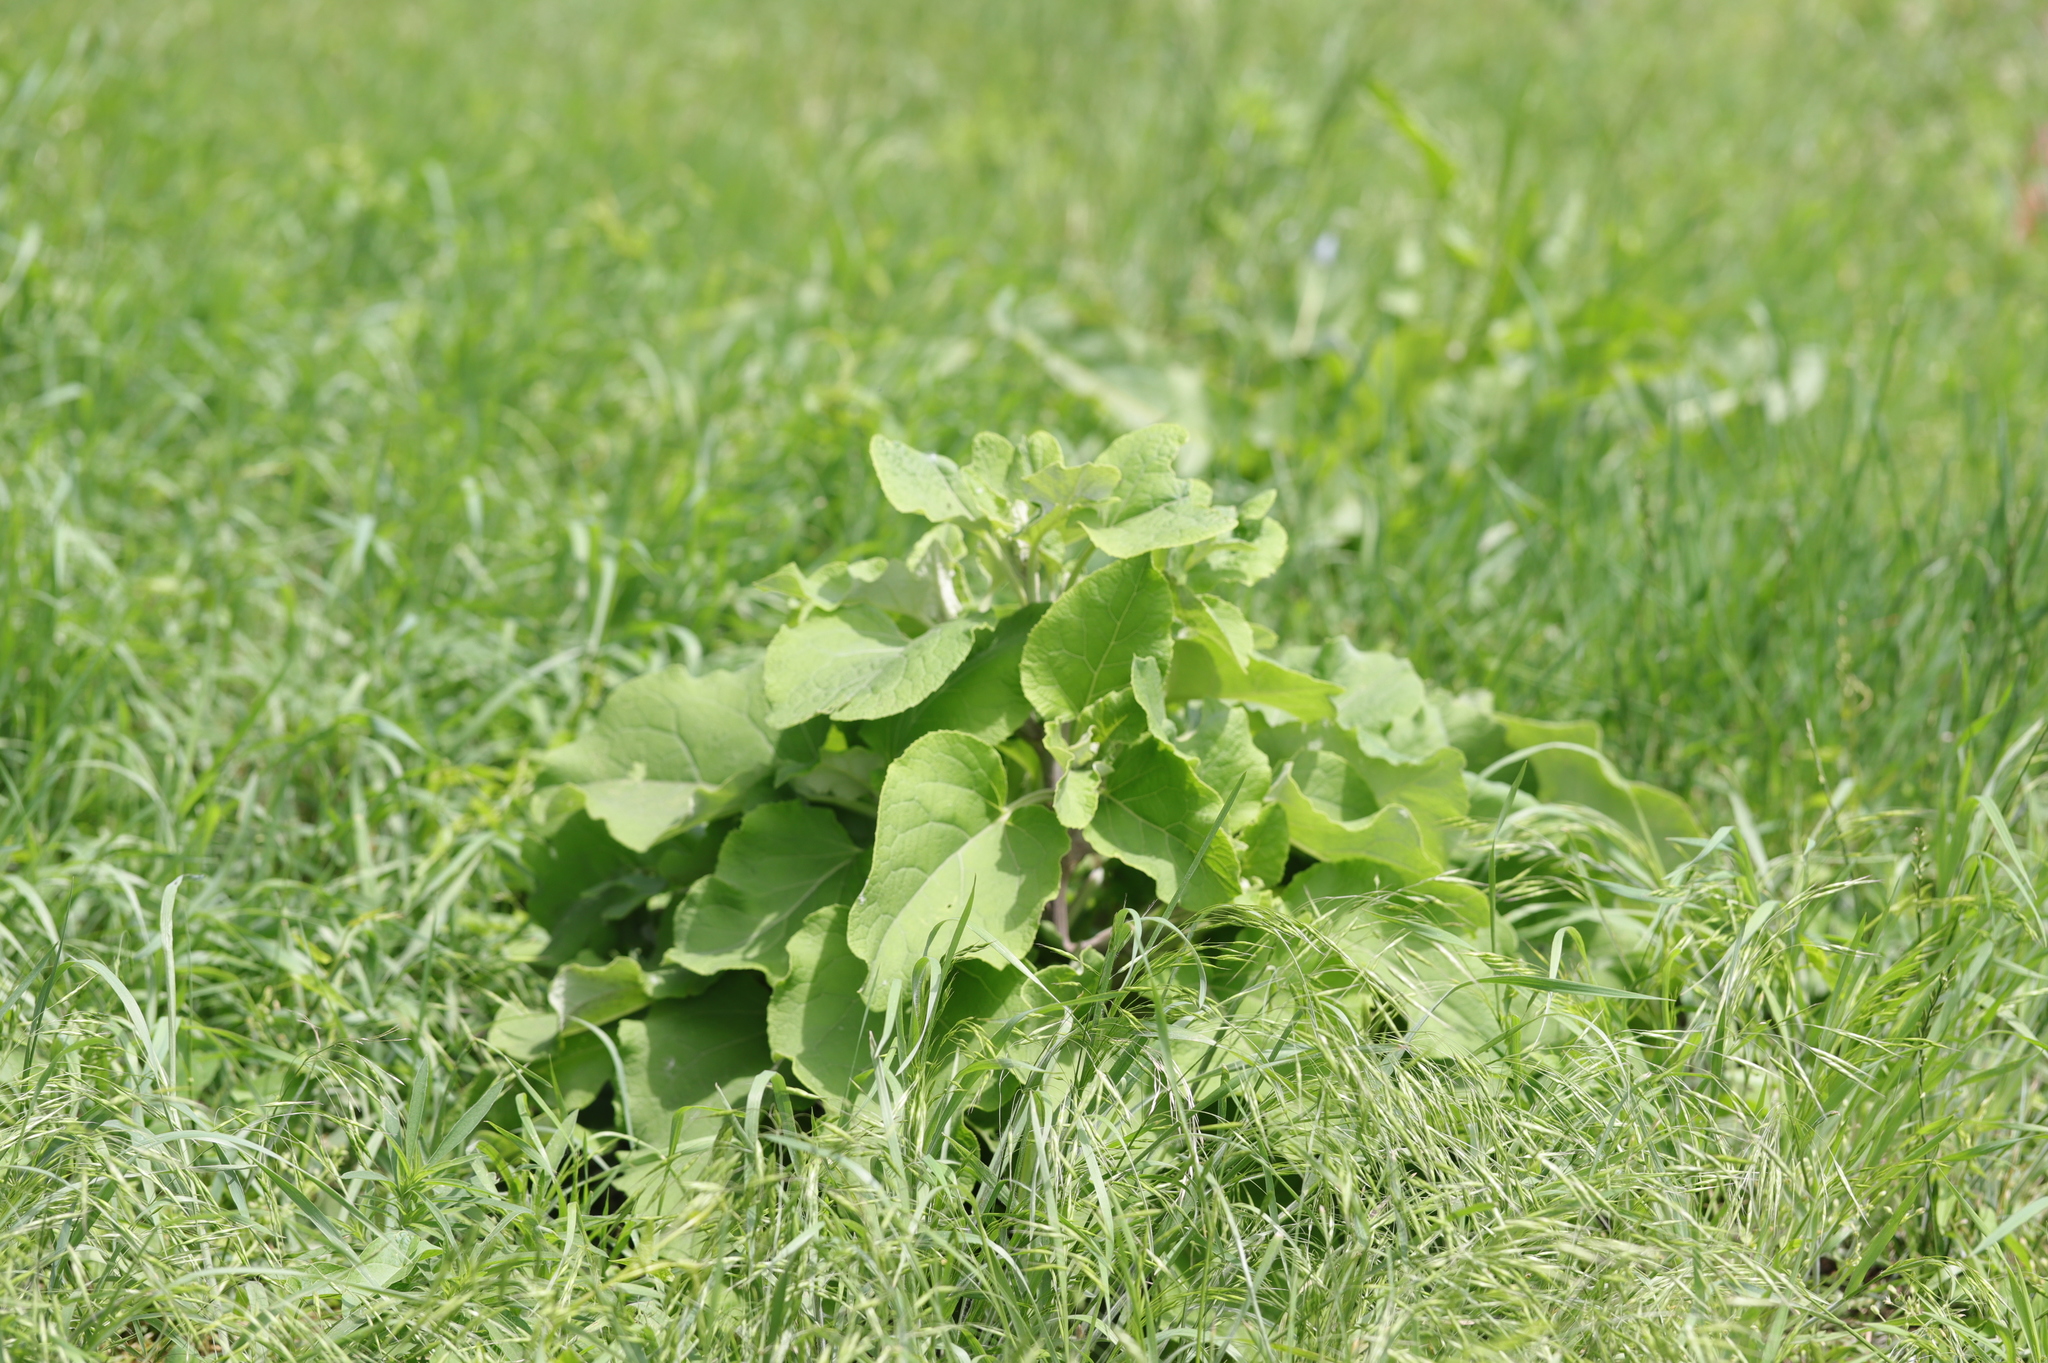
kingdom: Plantae
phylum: Tracheophyta
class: Magnoliopsida
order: Asterales
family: Asteraceae
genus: Arctium
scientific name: Arctium
